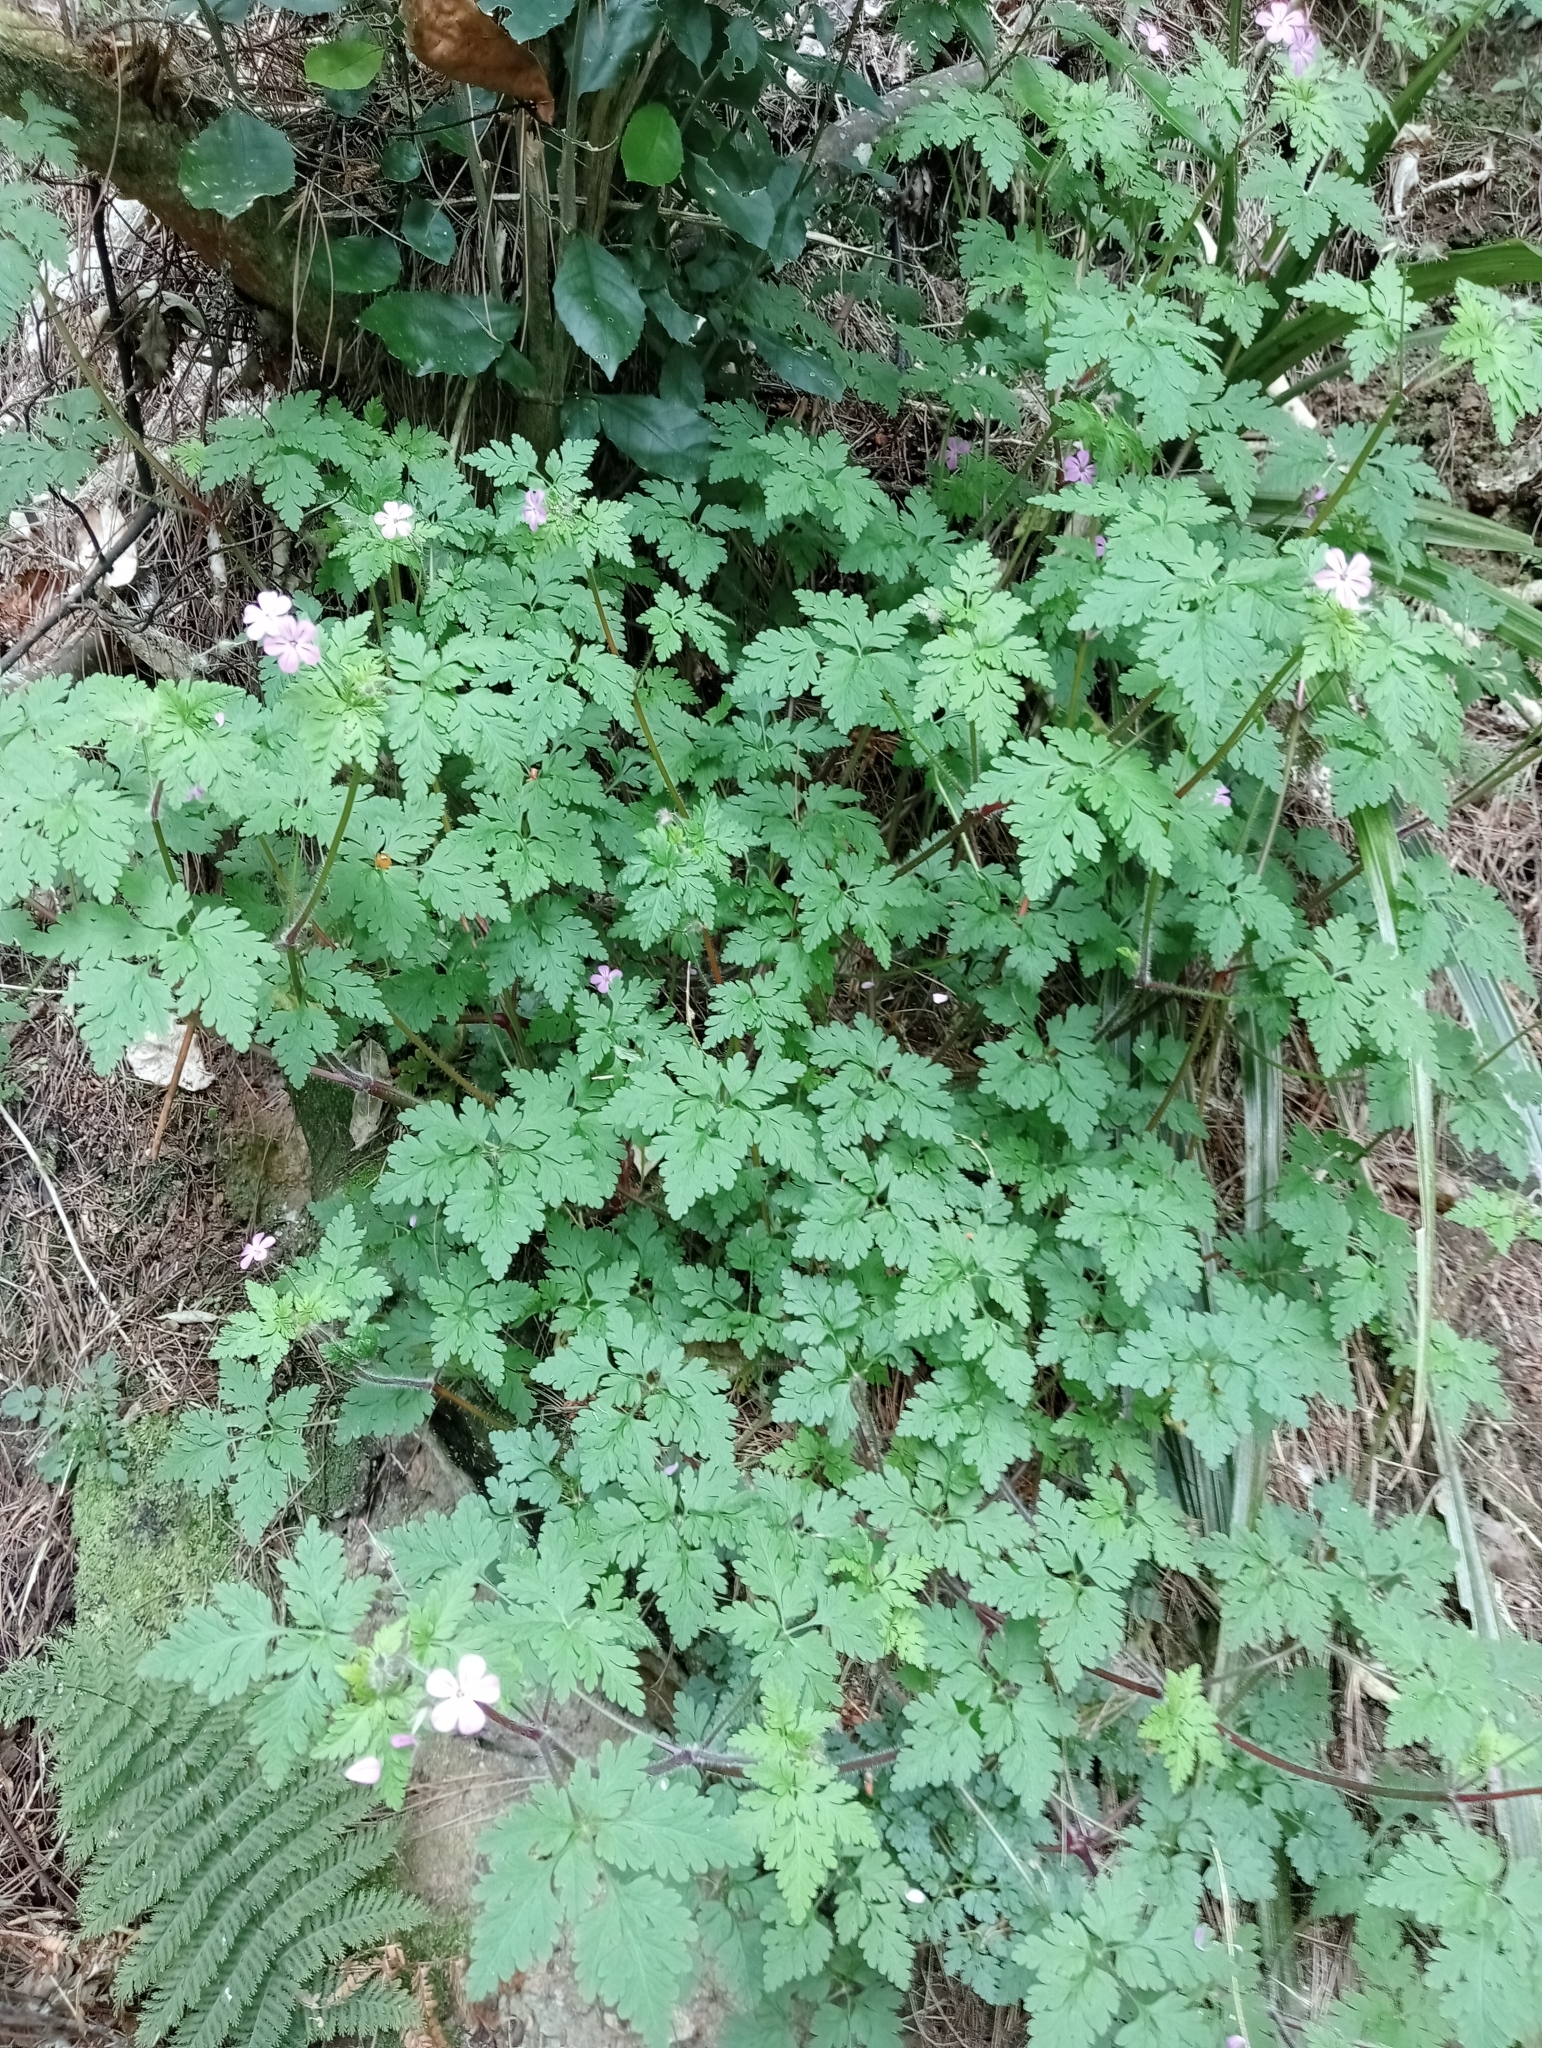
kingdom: Plantae
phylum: Tracheophyta
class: Magnoliopsida
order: Geraniales
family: Geraniaceae
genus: Geranium
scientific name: Geranium robertianum
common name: Herb-robert
